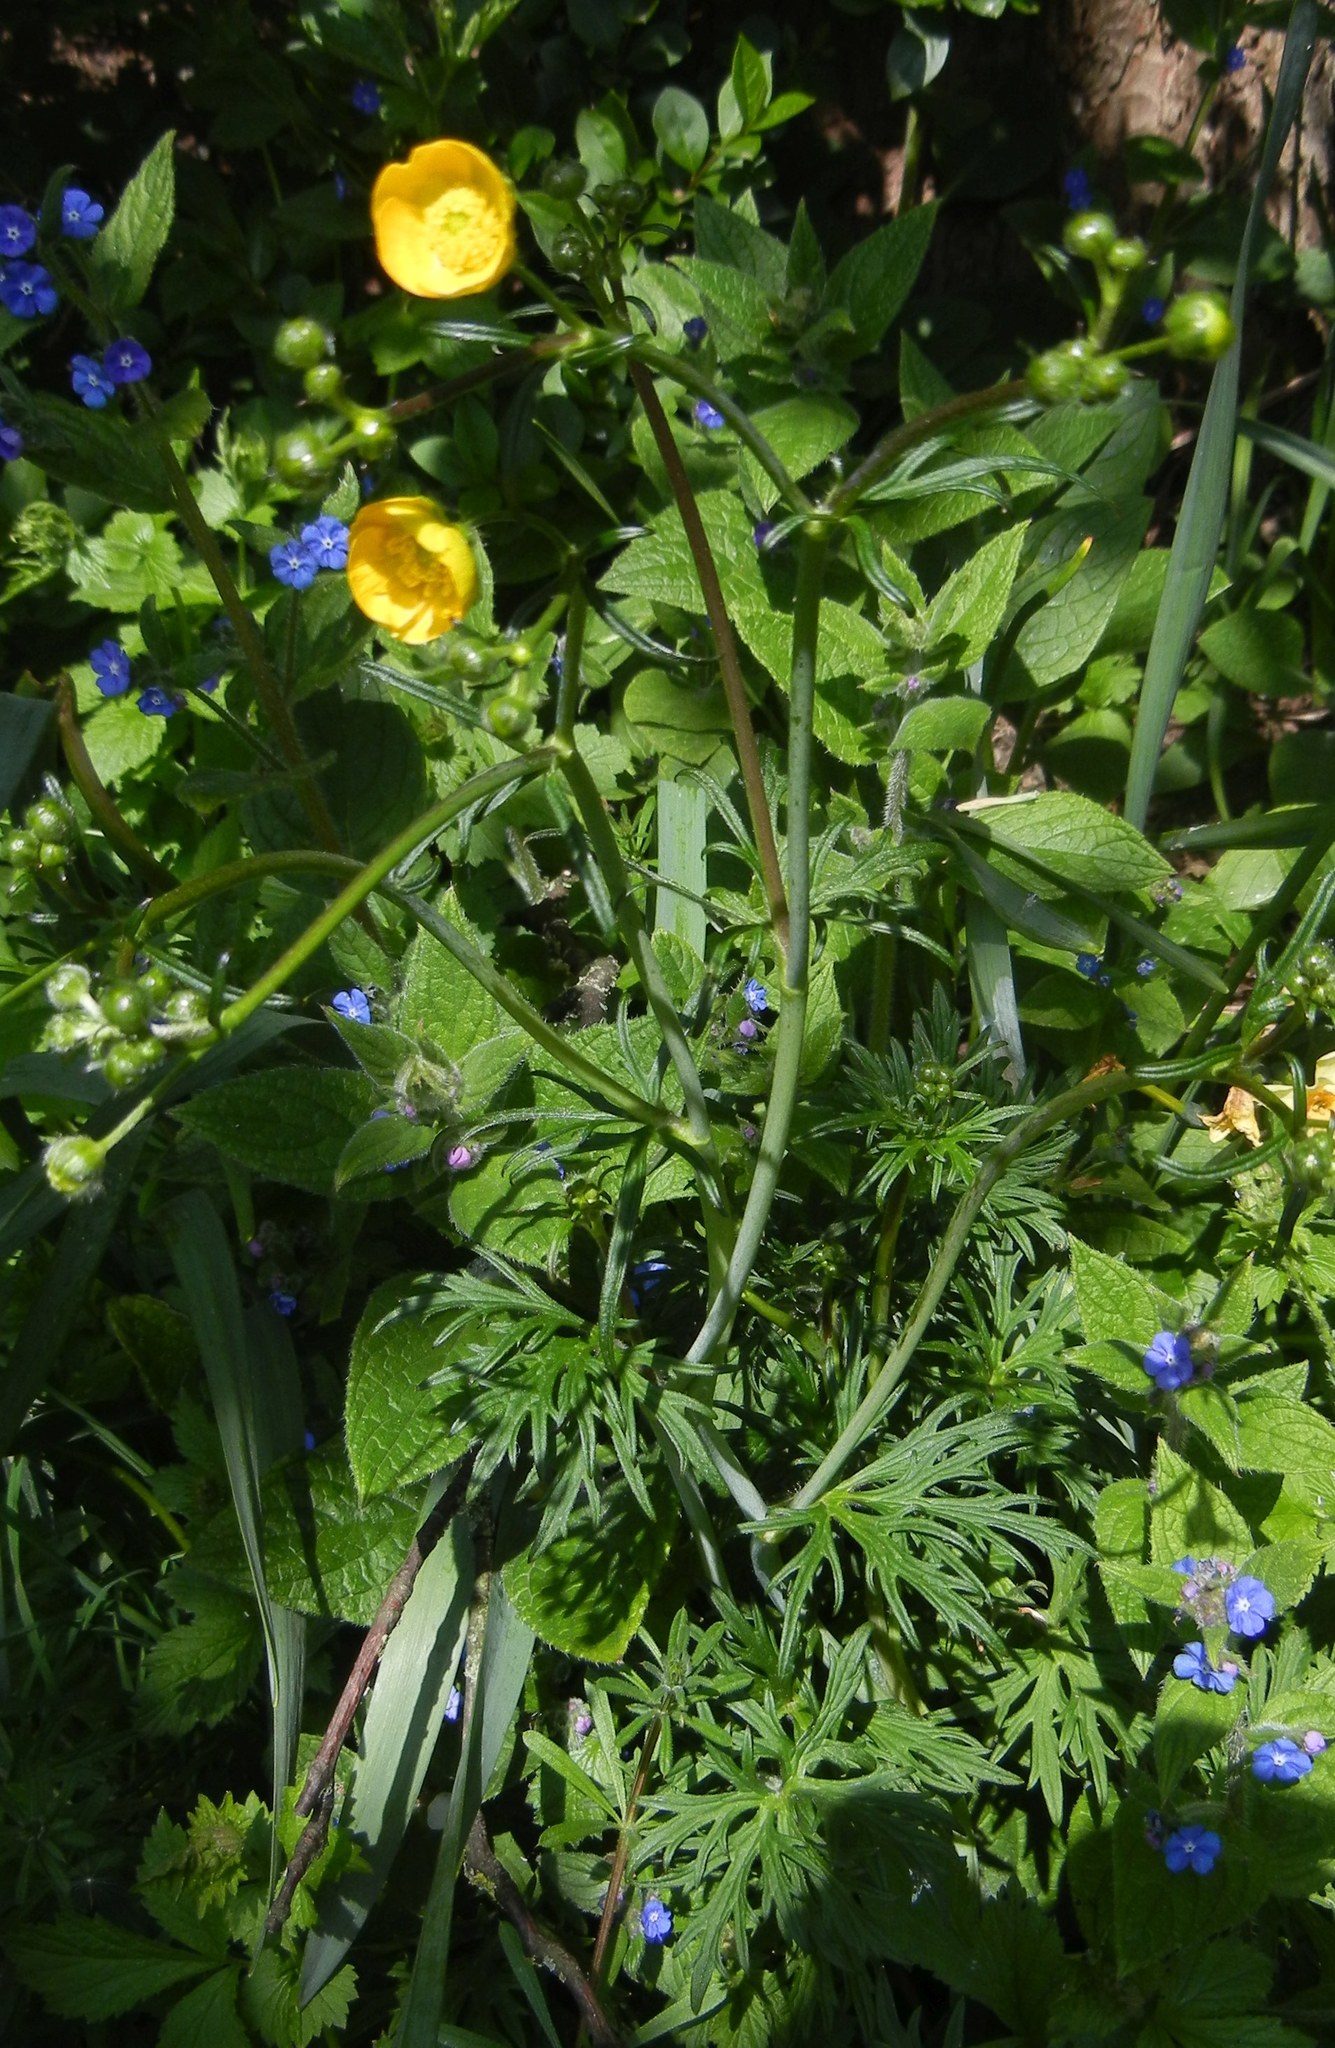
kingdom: Plantae
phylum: Tracheophyta
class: Magnoliopsida
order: Ranunculales
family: Ranunculaceae
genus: Ranunculus
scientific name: Ranunculus acris
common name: Meadow buttercup
